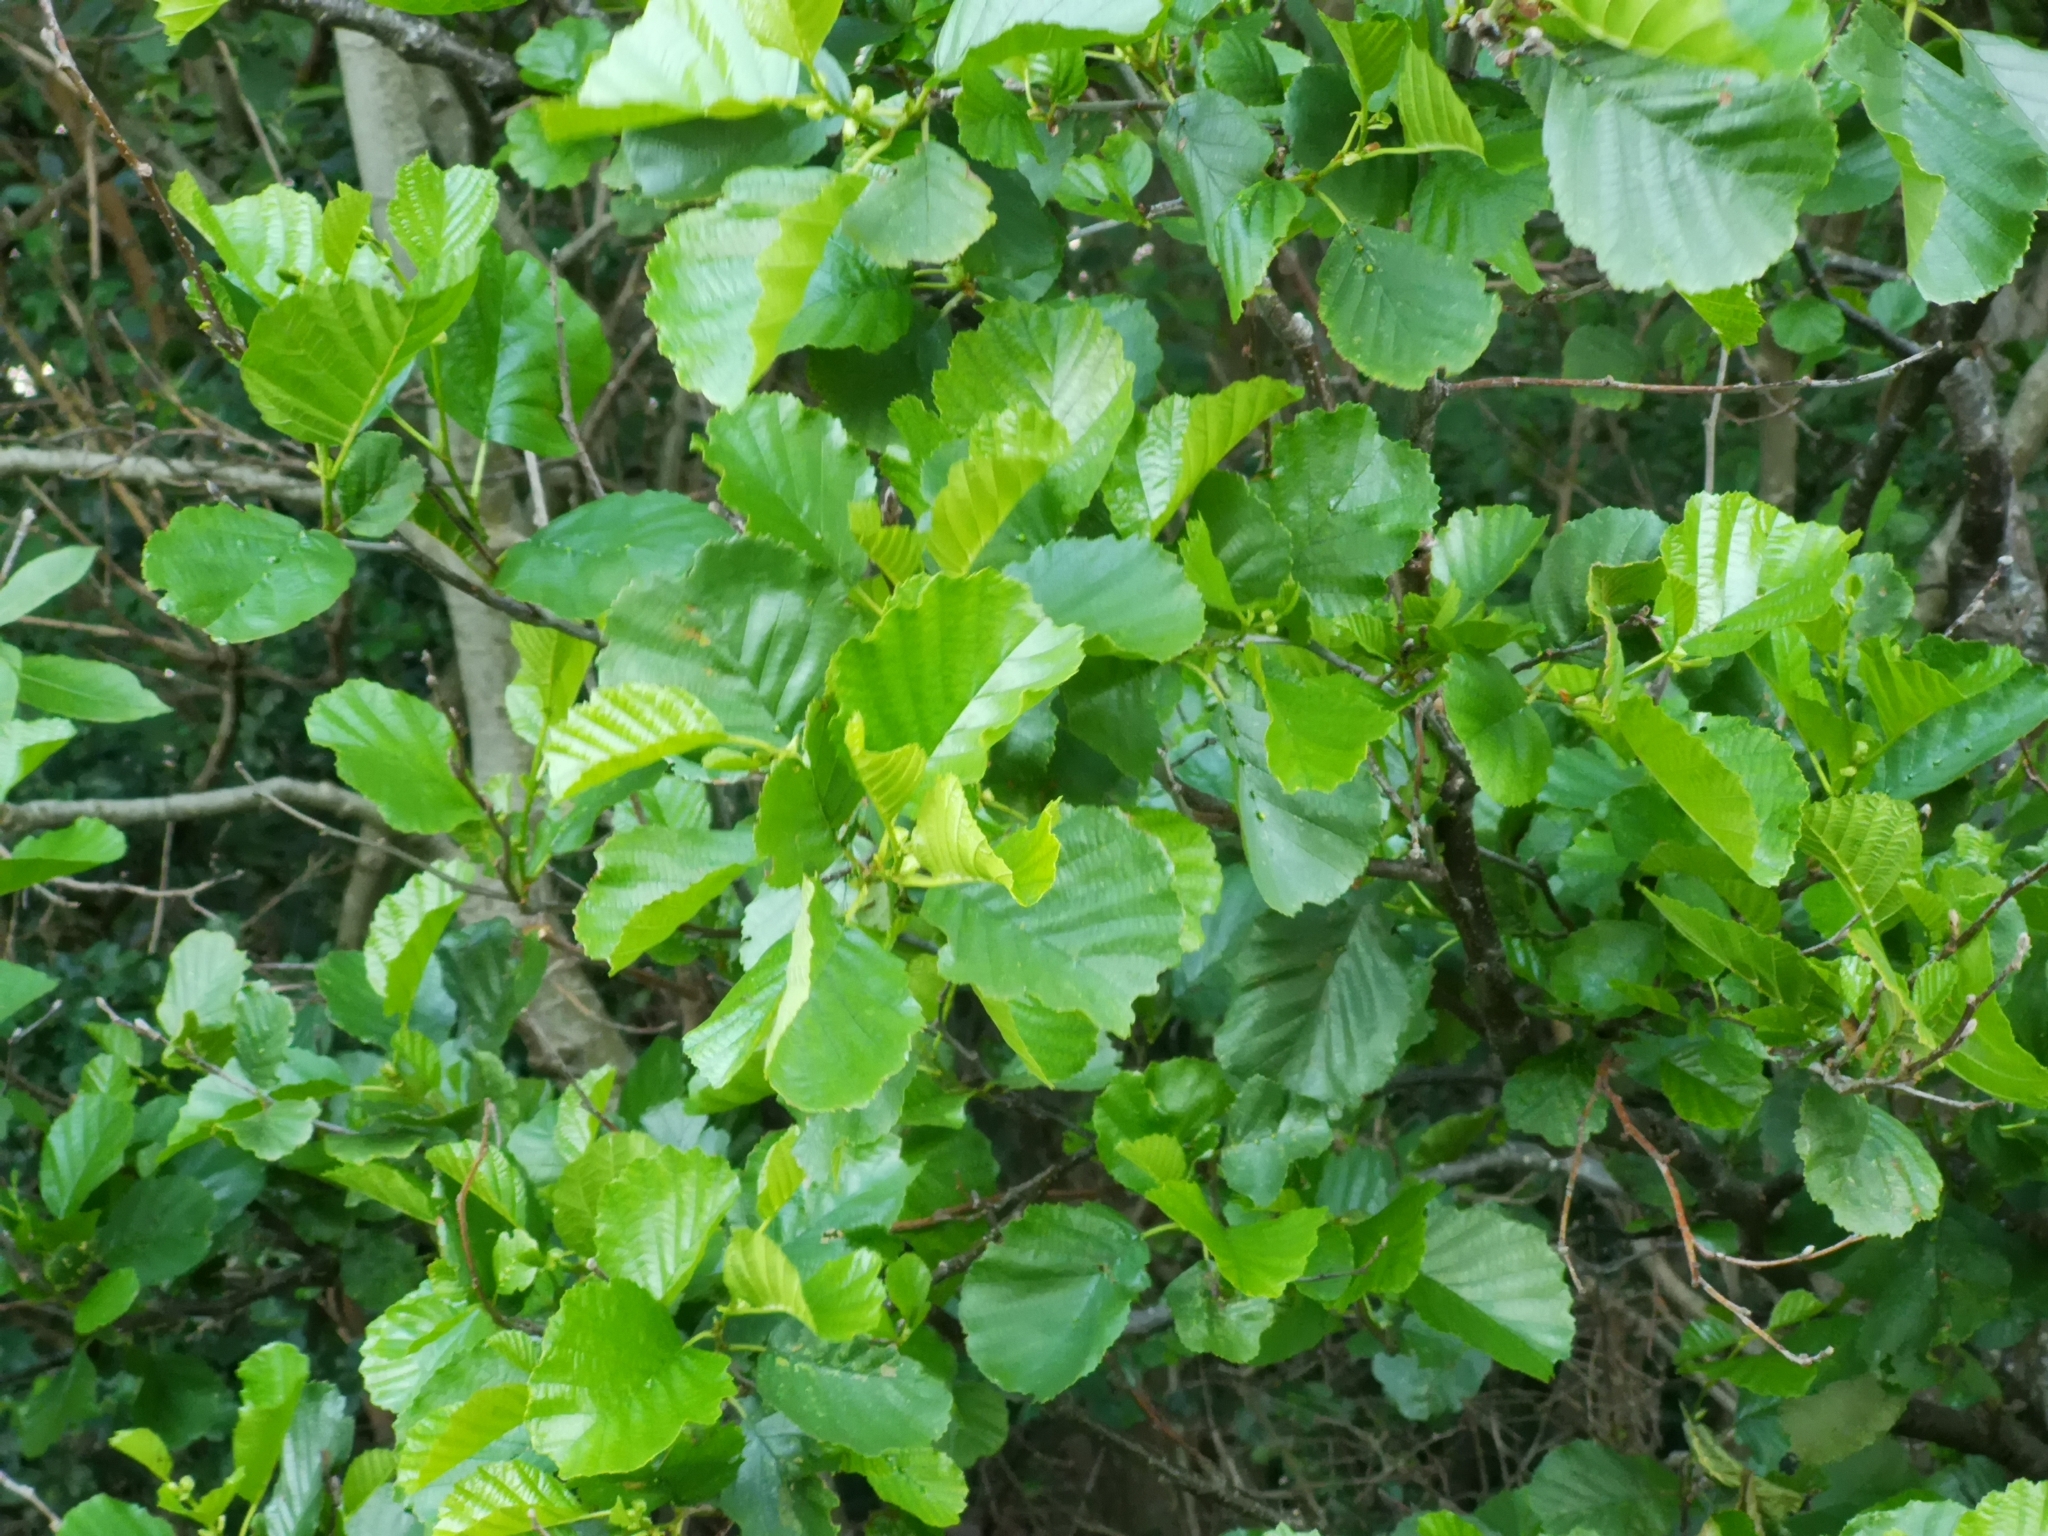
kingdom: Plantae
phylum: Tracheophyta
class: Magnoliopsida
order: Fagales
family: Betulaceae
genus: Alnus
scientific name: Alnus glutinosa
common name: Black alder
